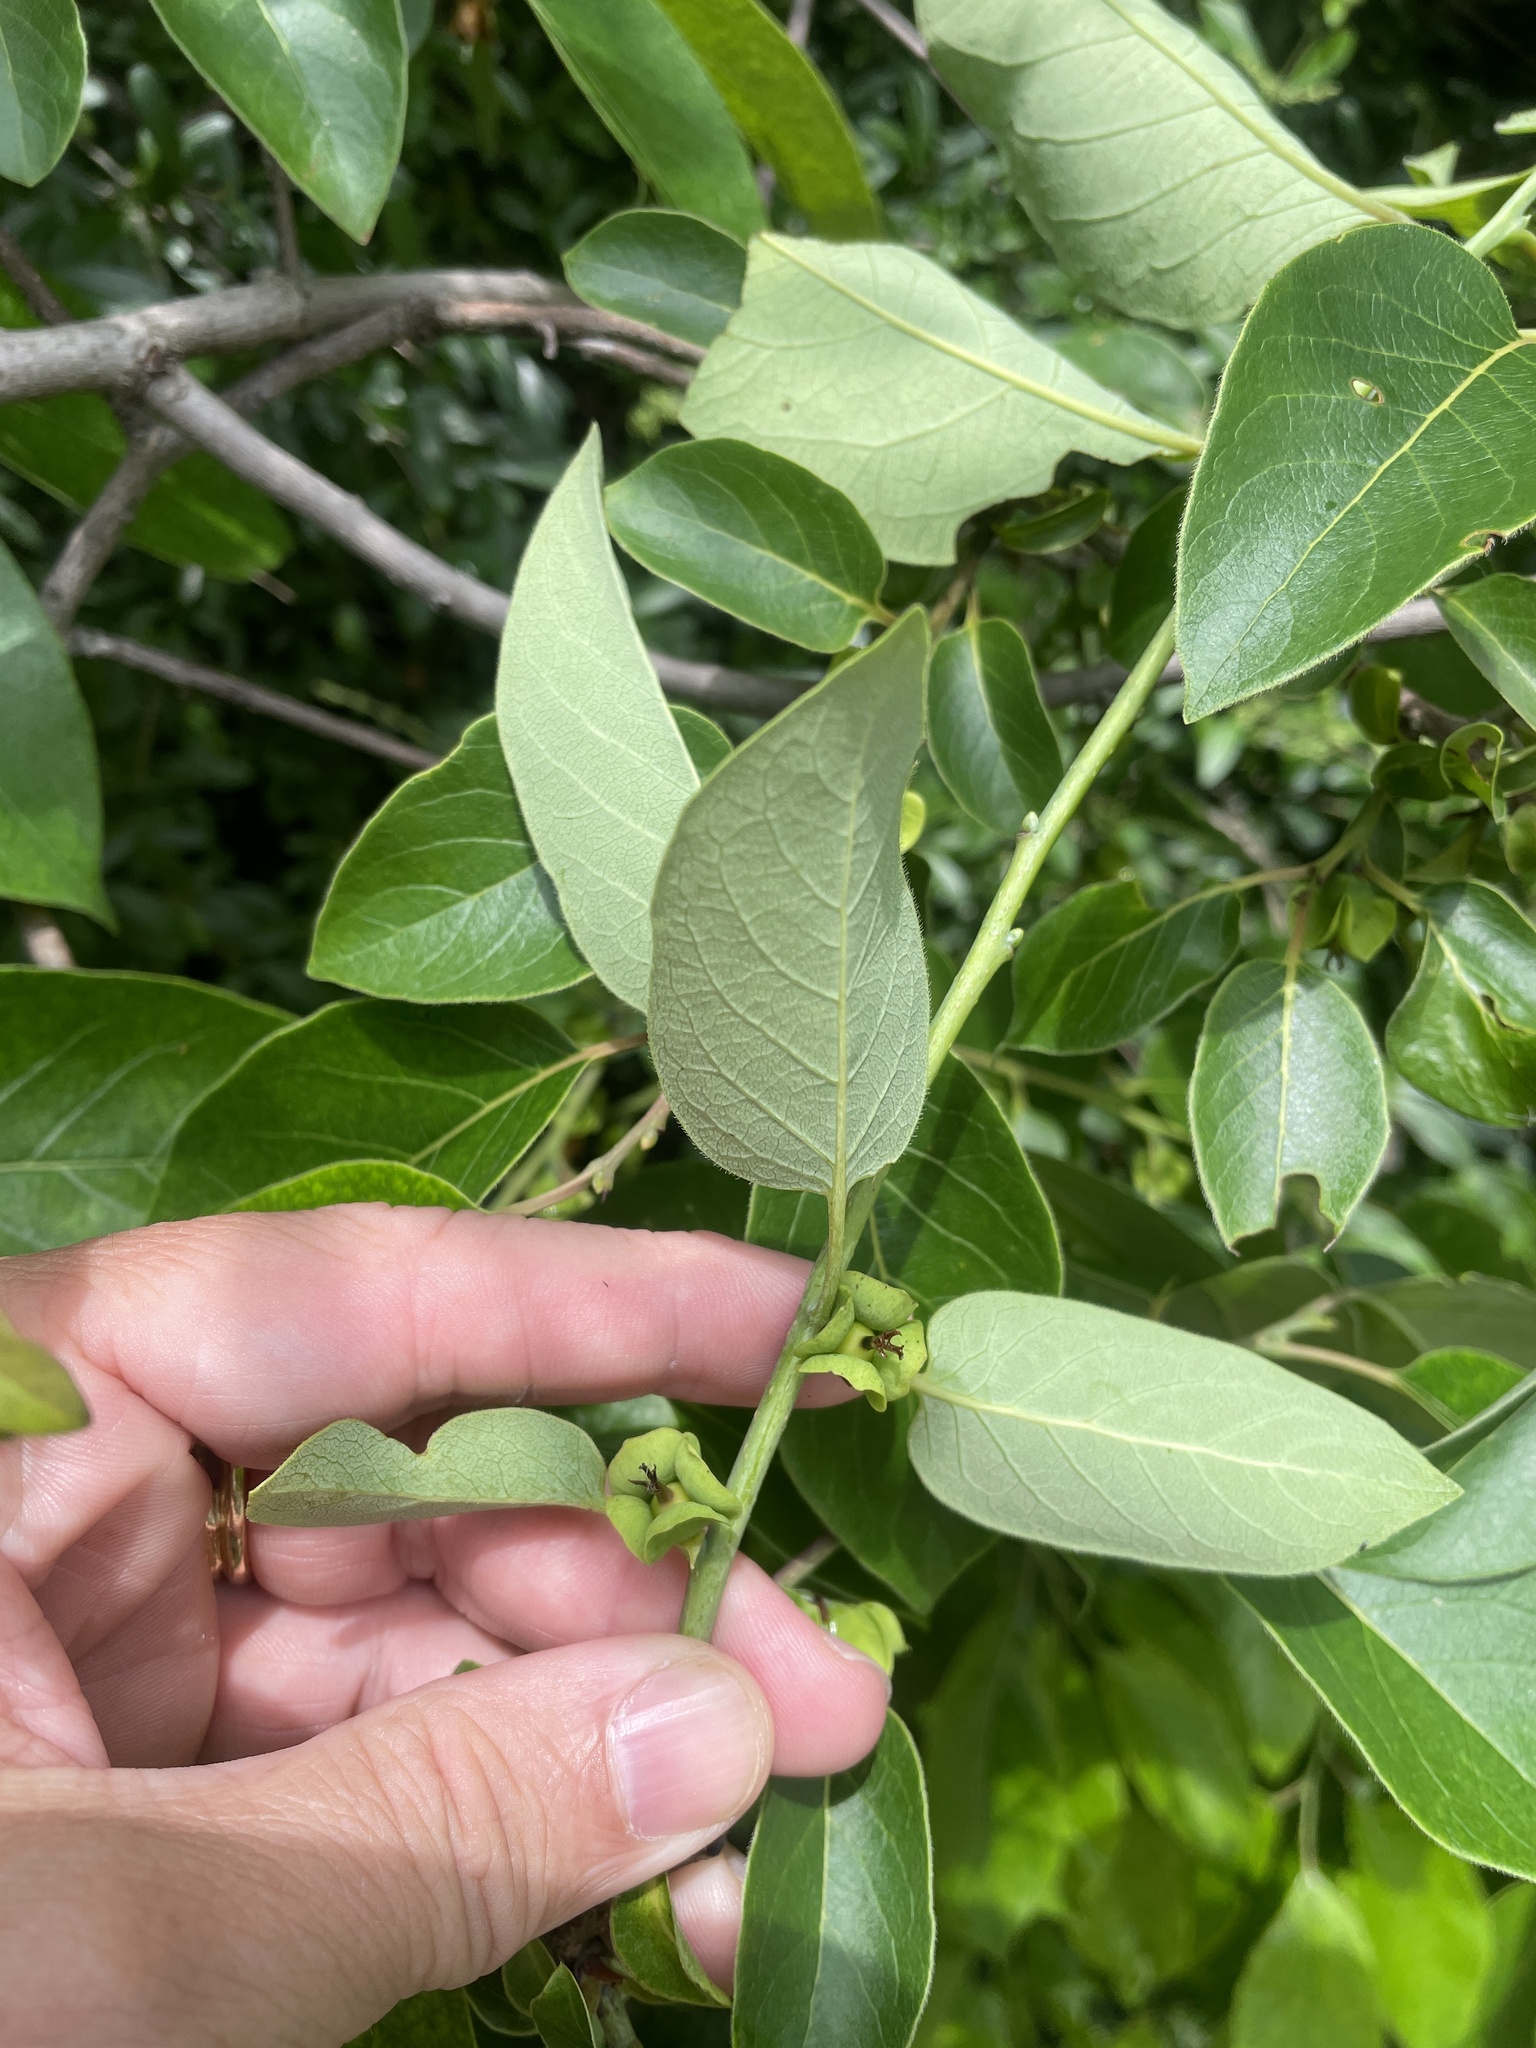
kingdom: Plantae
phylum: Tracheophyta
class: Magnoliopsida
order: Ericales
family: Ebenaceae
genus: Diospyros
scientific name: Diospyros virginiana
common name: Persimmon
